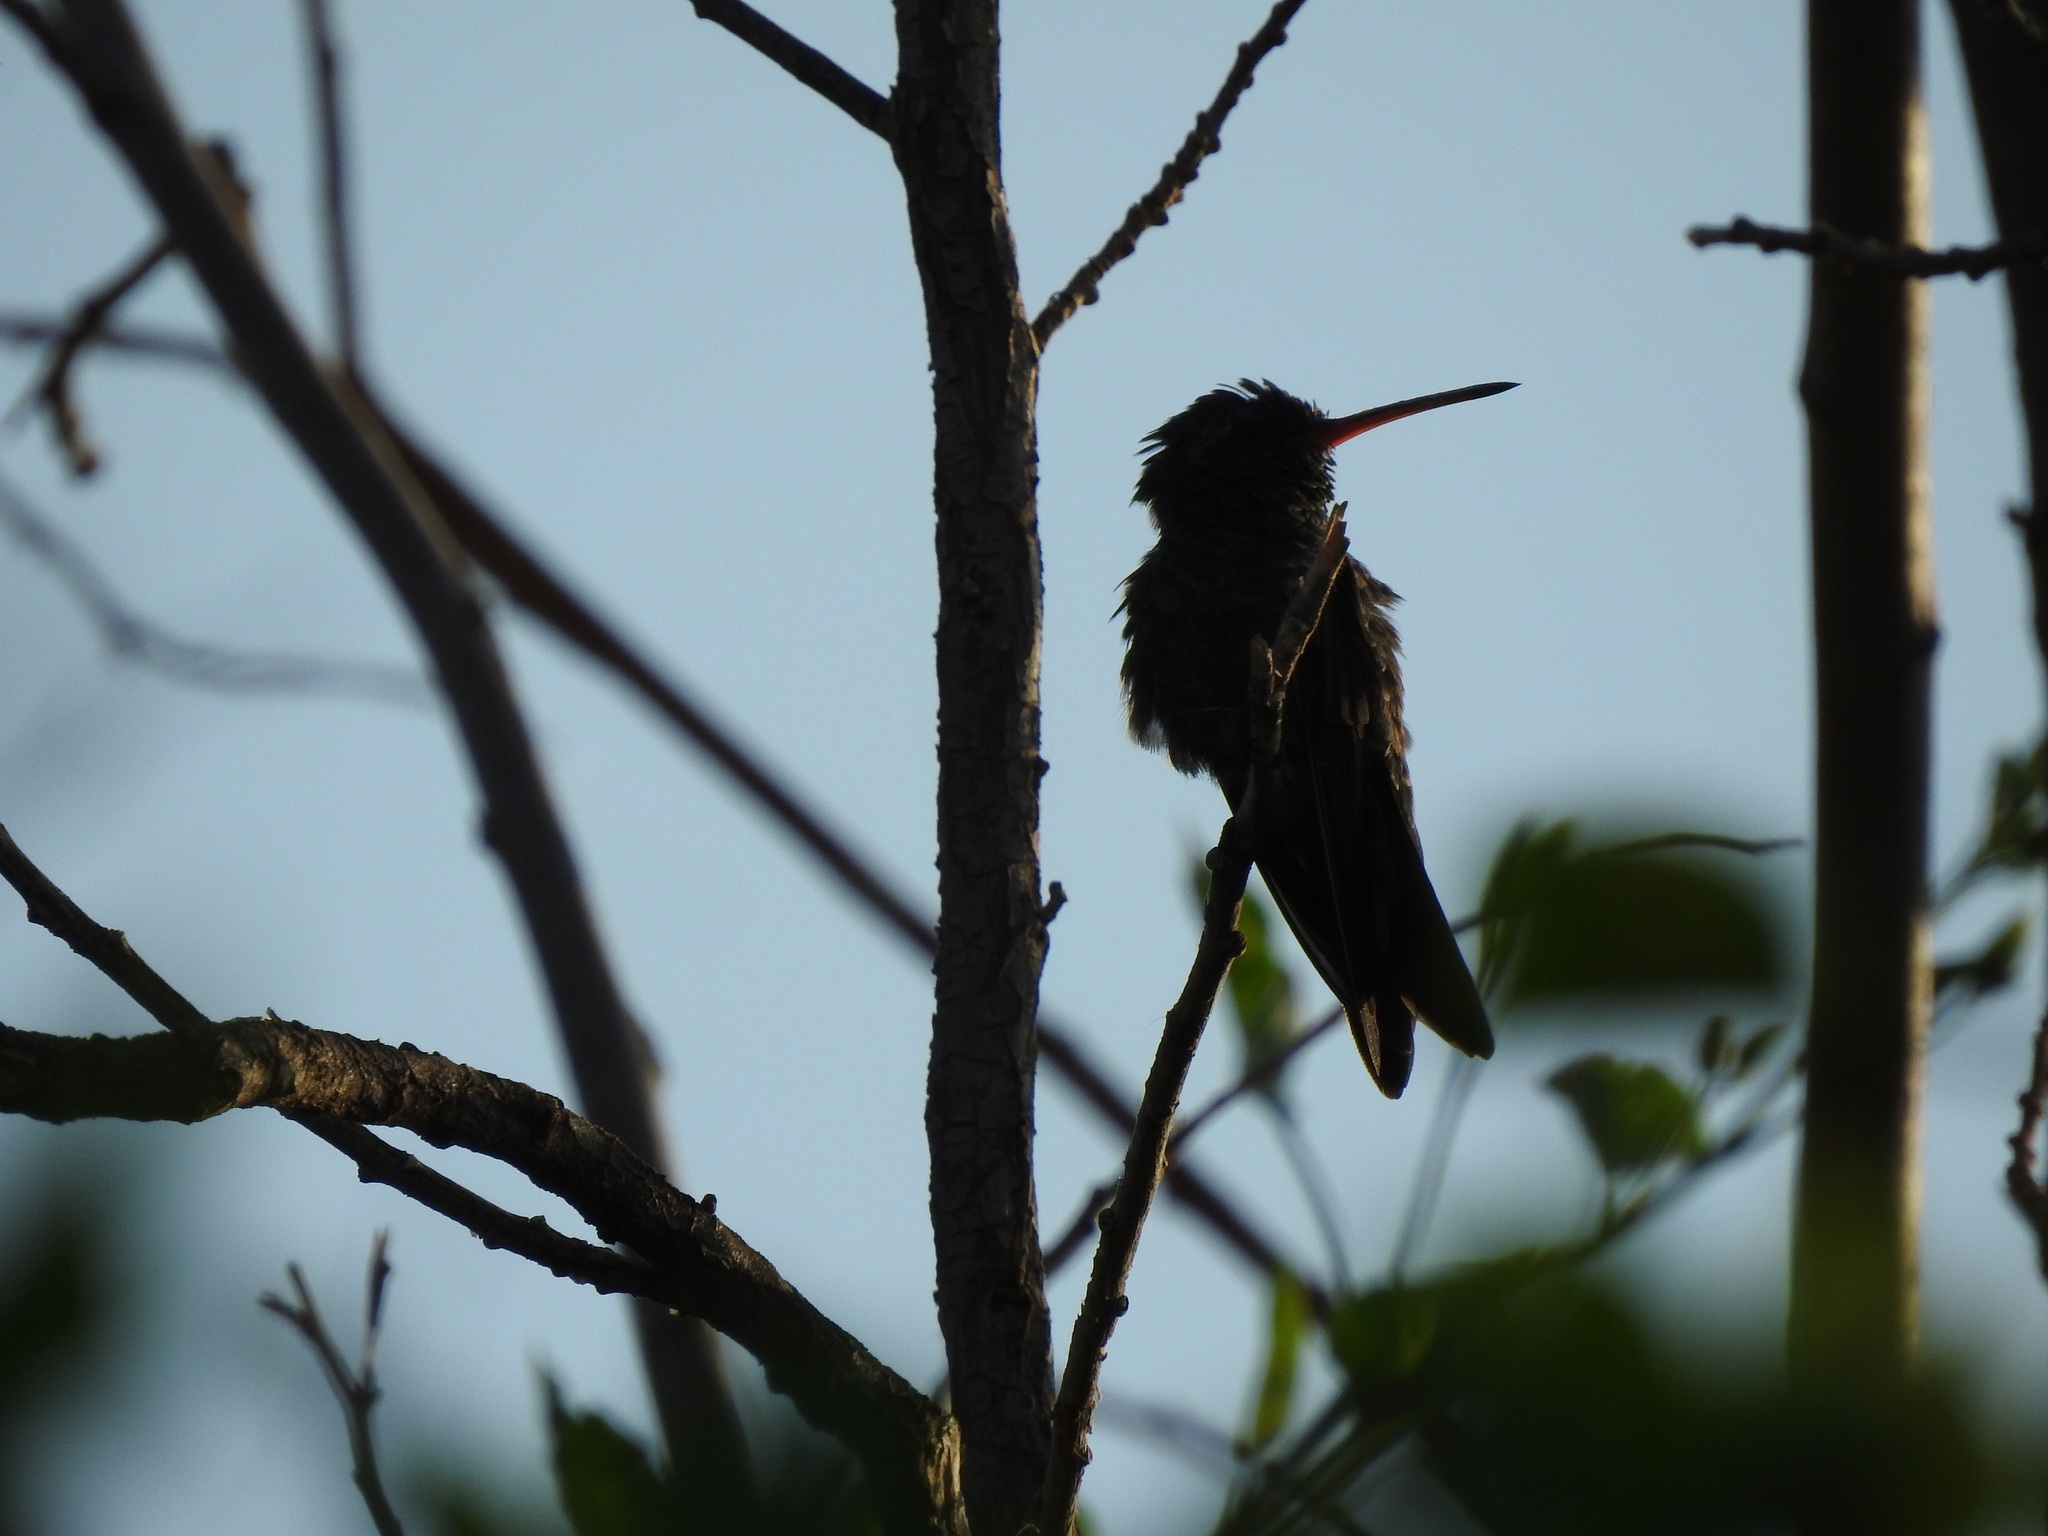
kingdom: Animalia
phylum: Chordata
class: Aves
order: Apodiformes
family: Trochilidae
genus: Cynanthus
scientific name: Cynanthus latirostris
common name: Broad-billed hummingbird
